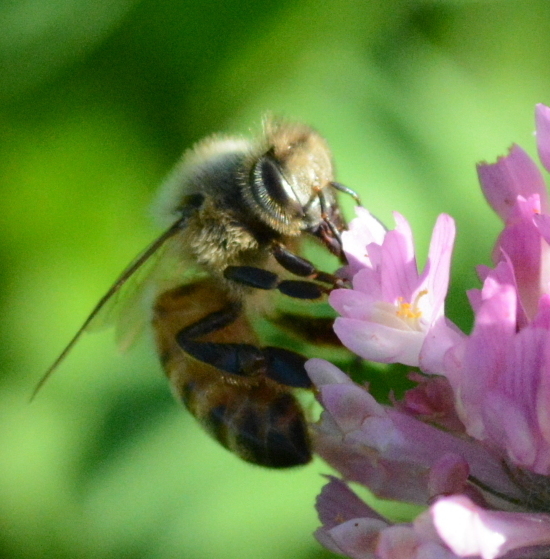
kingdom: Animalia
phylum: Arthropoda
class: Insecta
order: Hymenoptera
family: Apidae
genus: Apis
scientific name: Apis mellifera
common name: Honey bee
